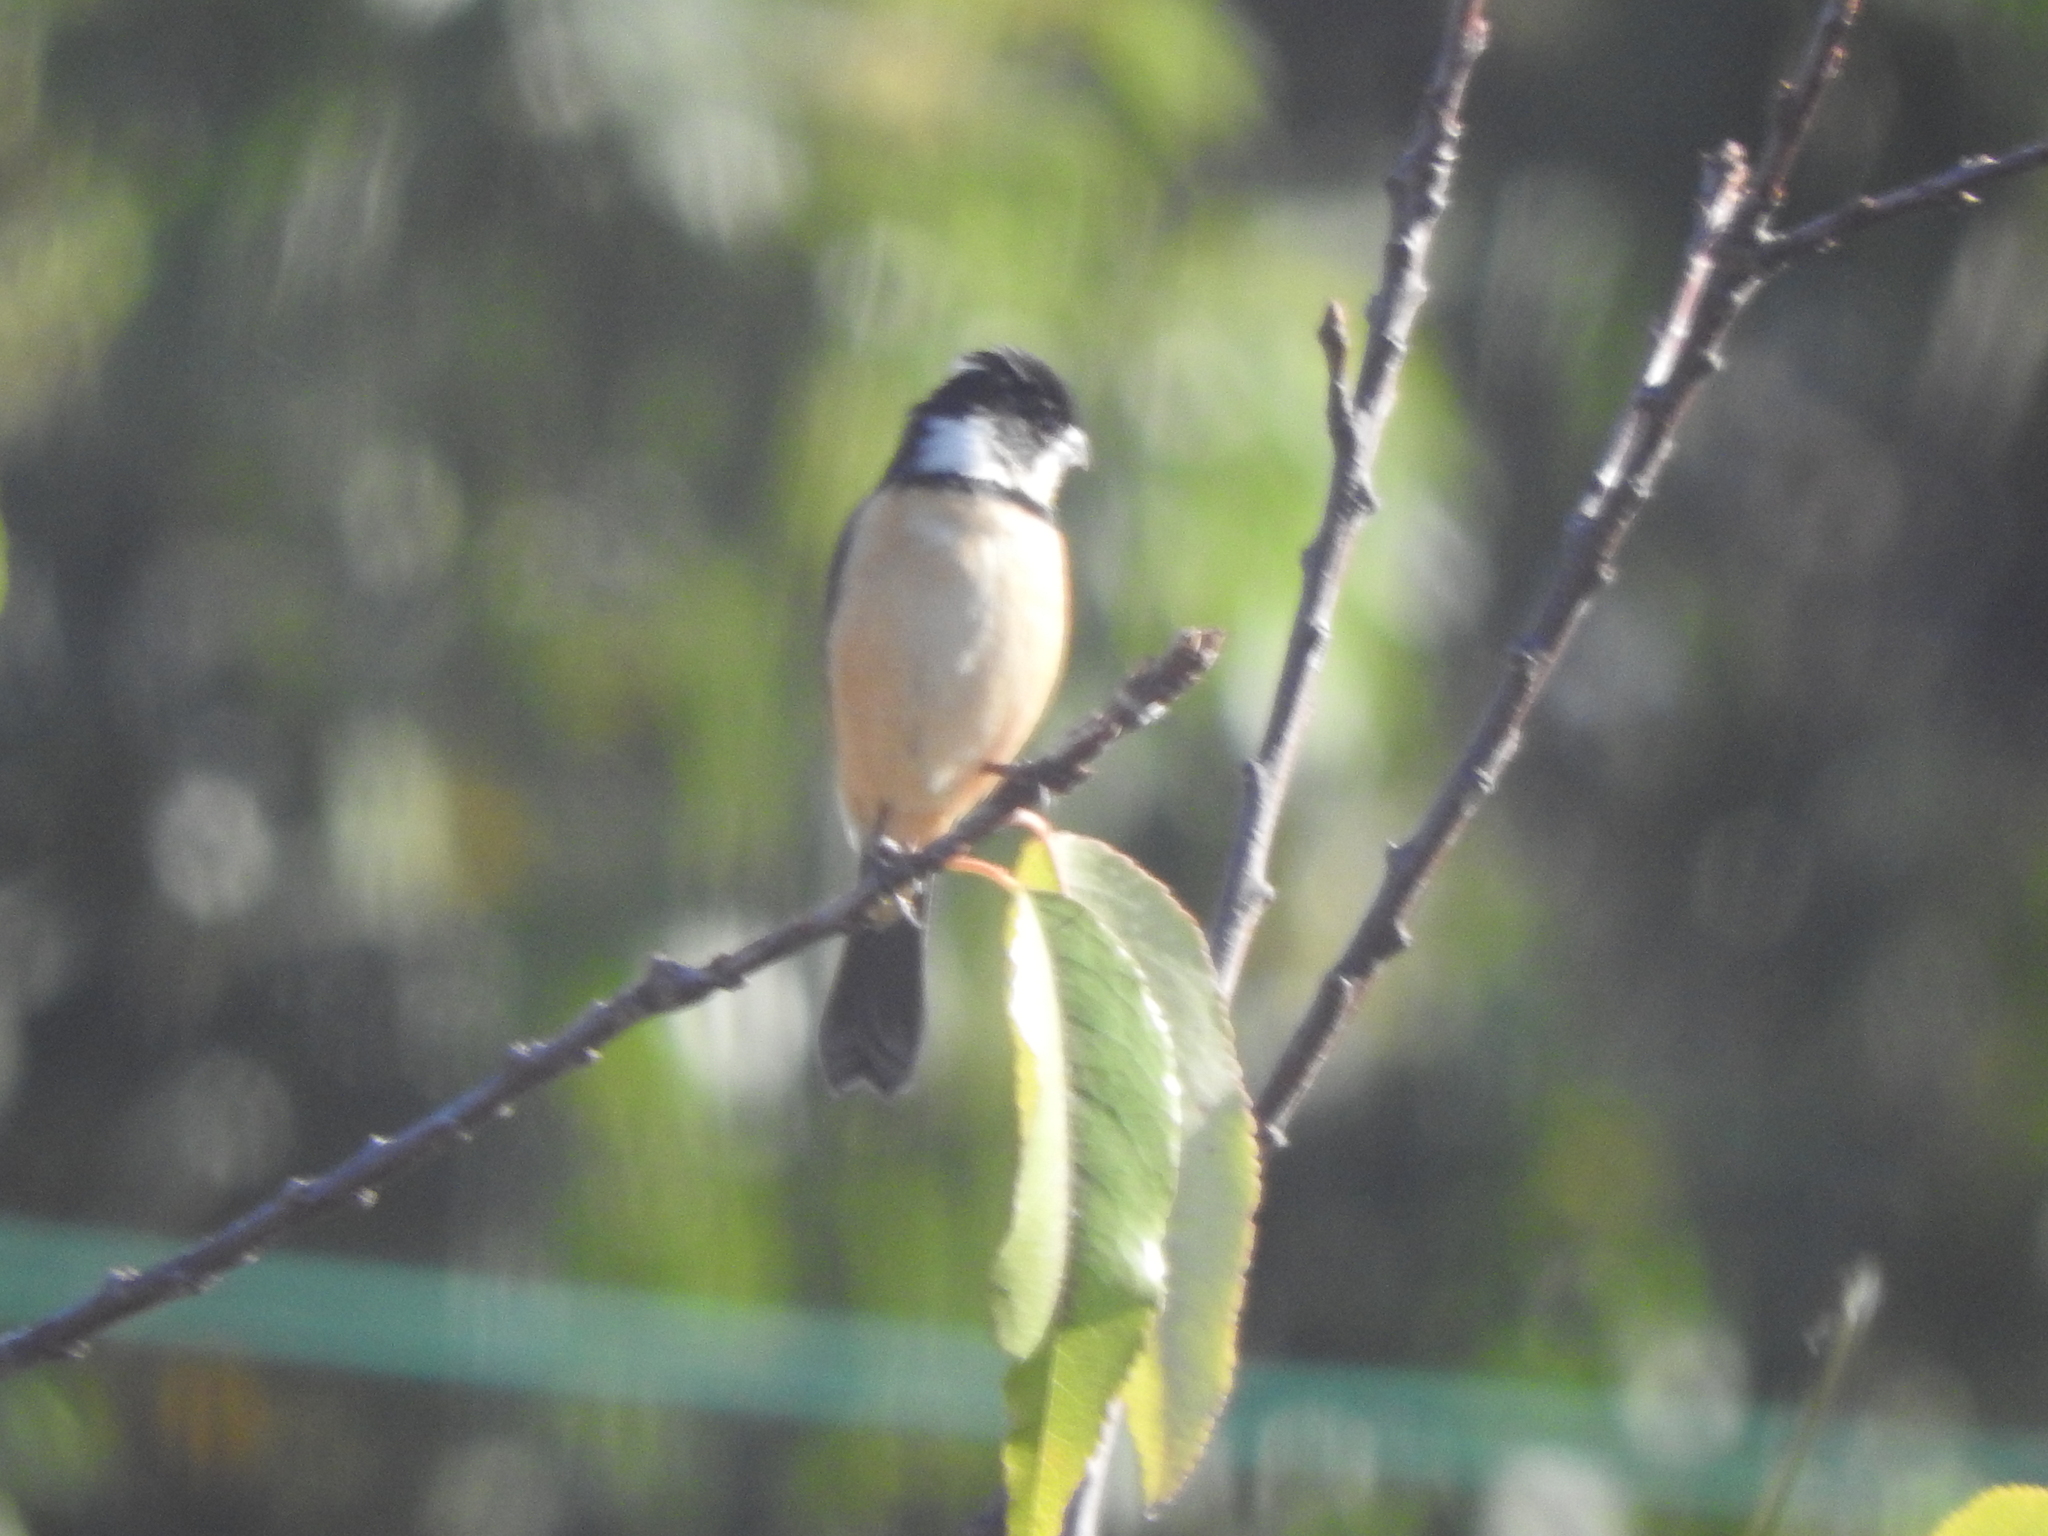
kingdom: Animalia
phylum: Chordata
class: Aves
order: Passeriformes
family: Thraupidae
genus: Sporophila
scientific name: Sporophila torqueola
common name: White-collared seedeater
